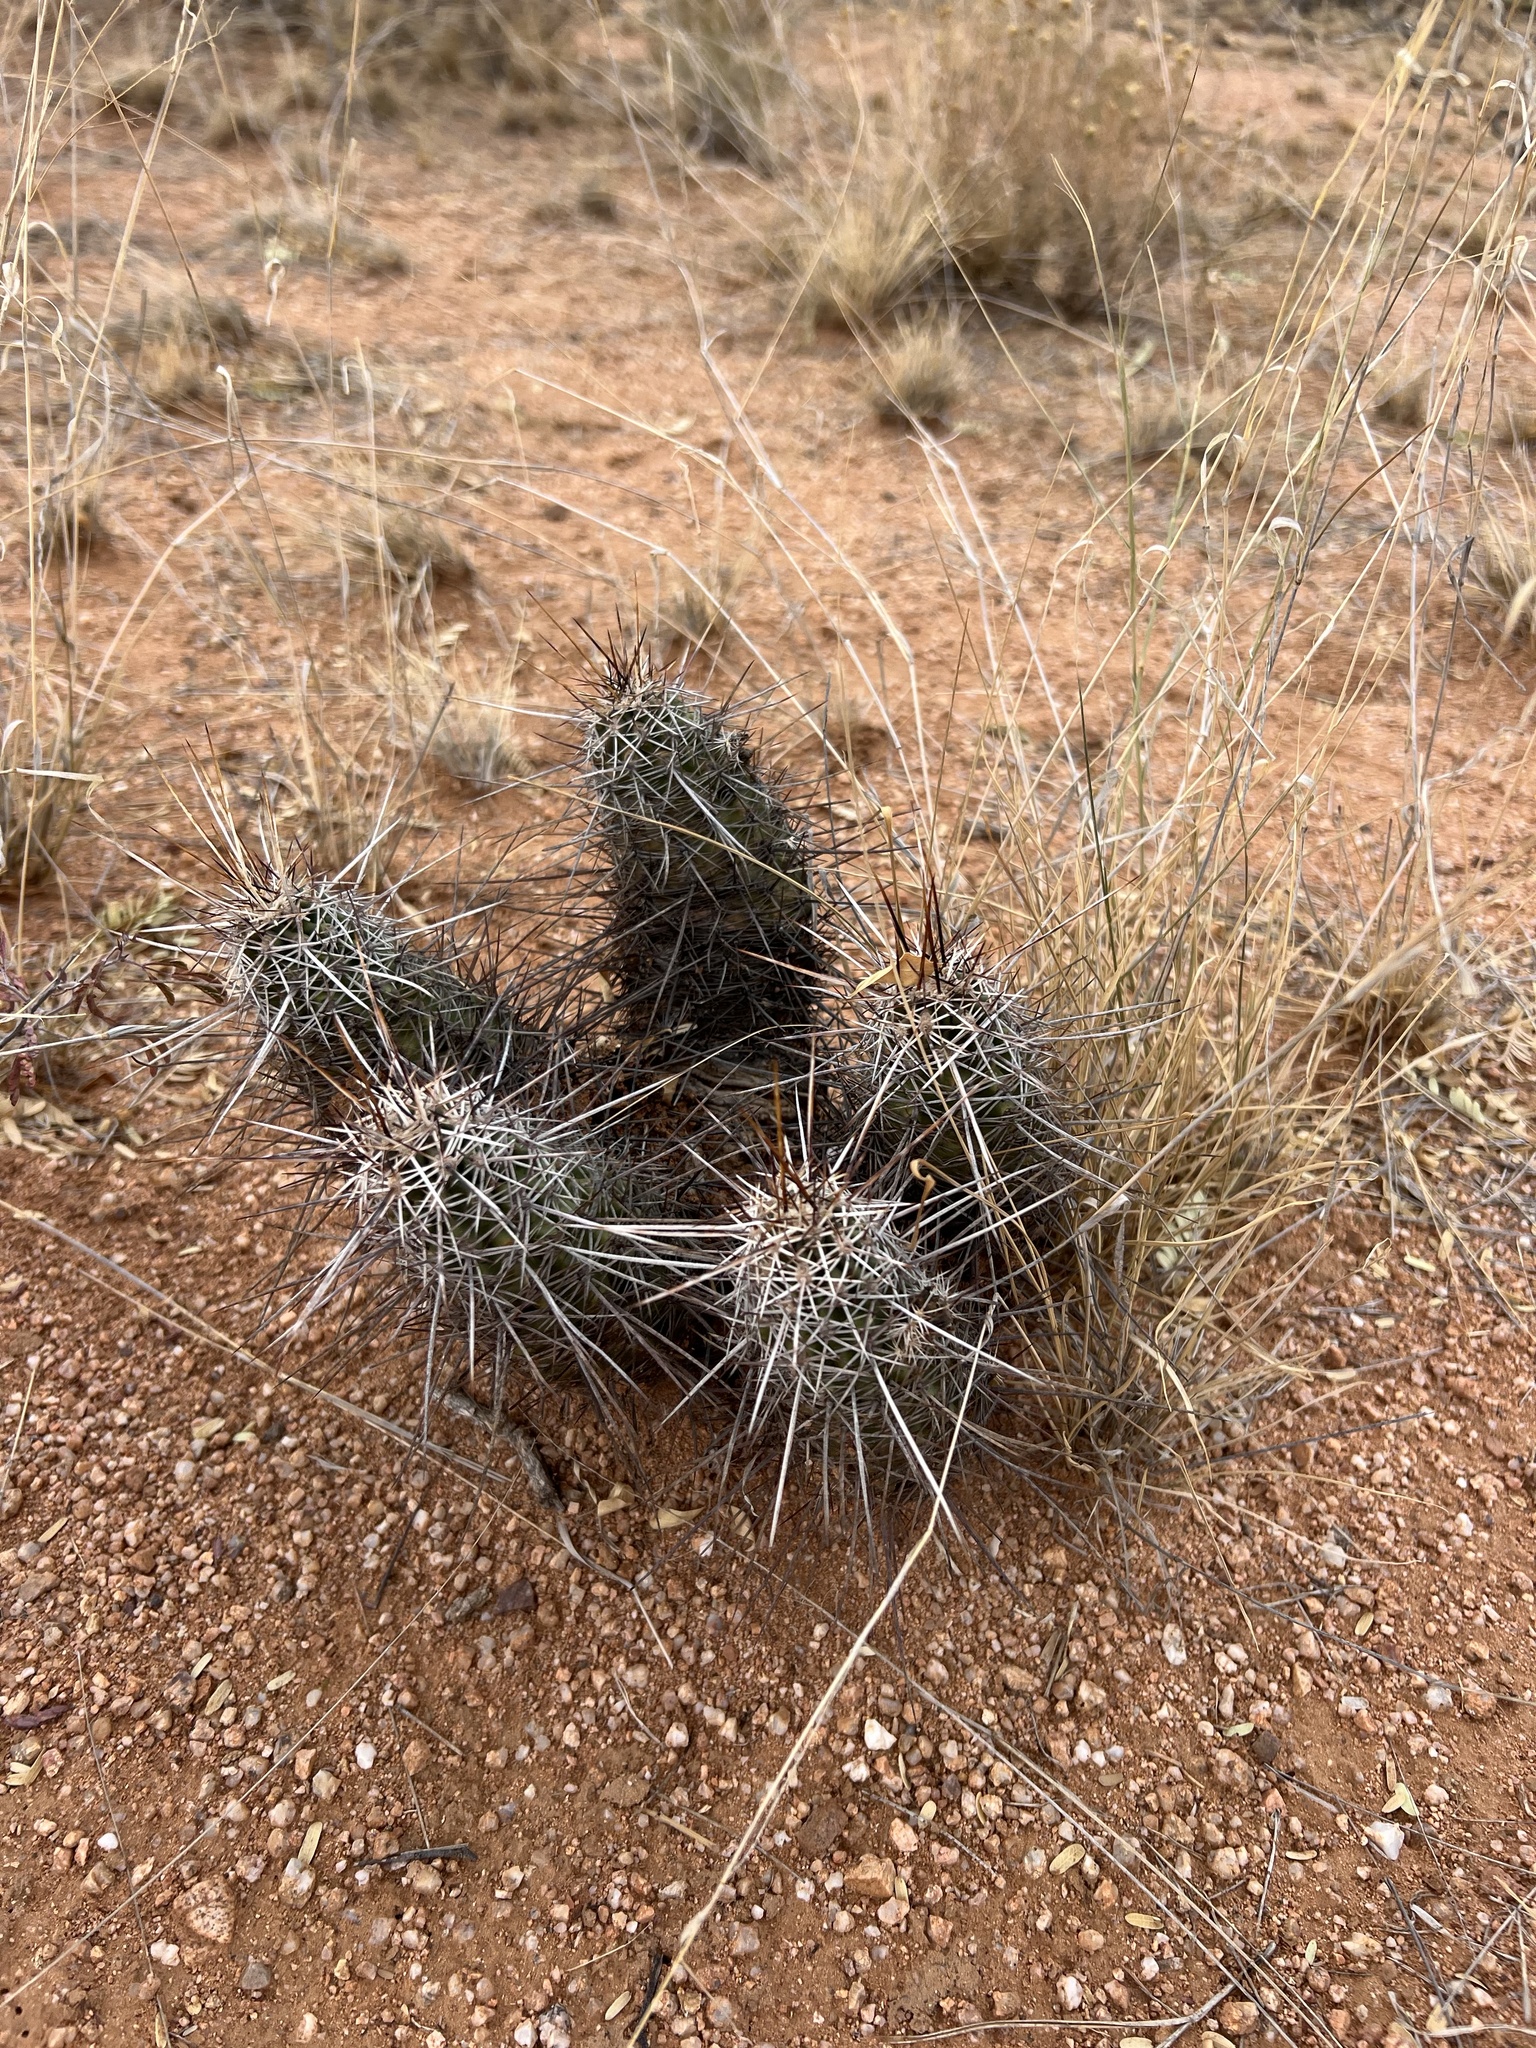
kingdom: Plantae
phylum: Tracheophyta
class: Magnoliopsida
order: Caryophyllales
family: Cactaceae
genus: Echinocereus
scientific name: Echinocereus fasciculatus
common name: Bundle hedgehog
